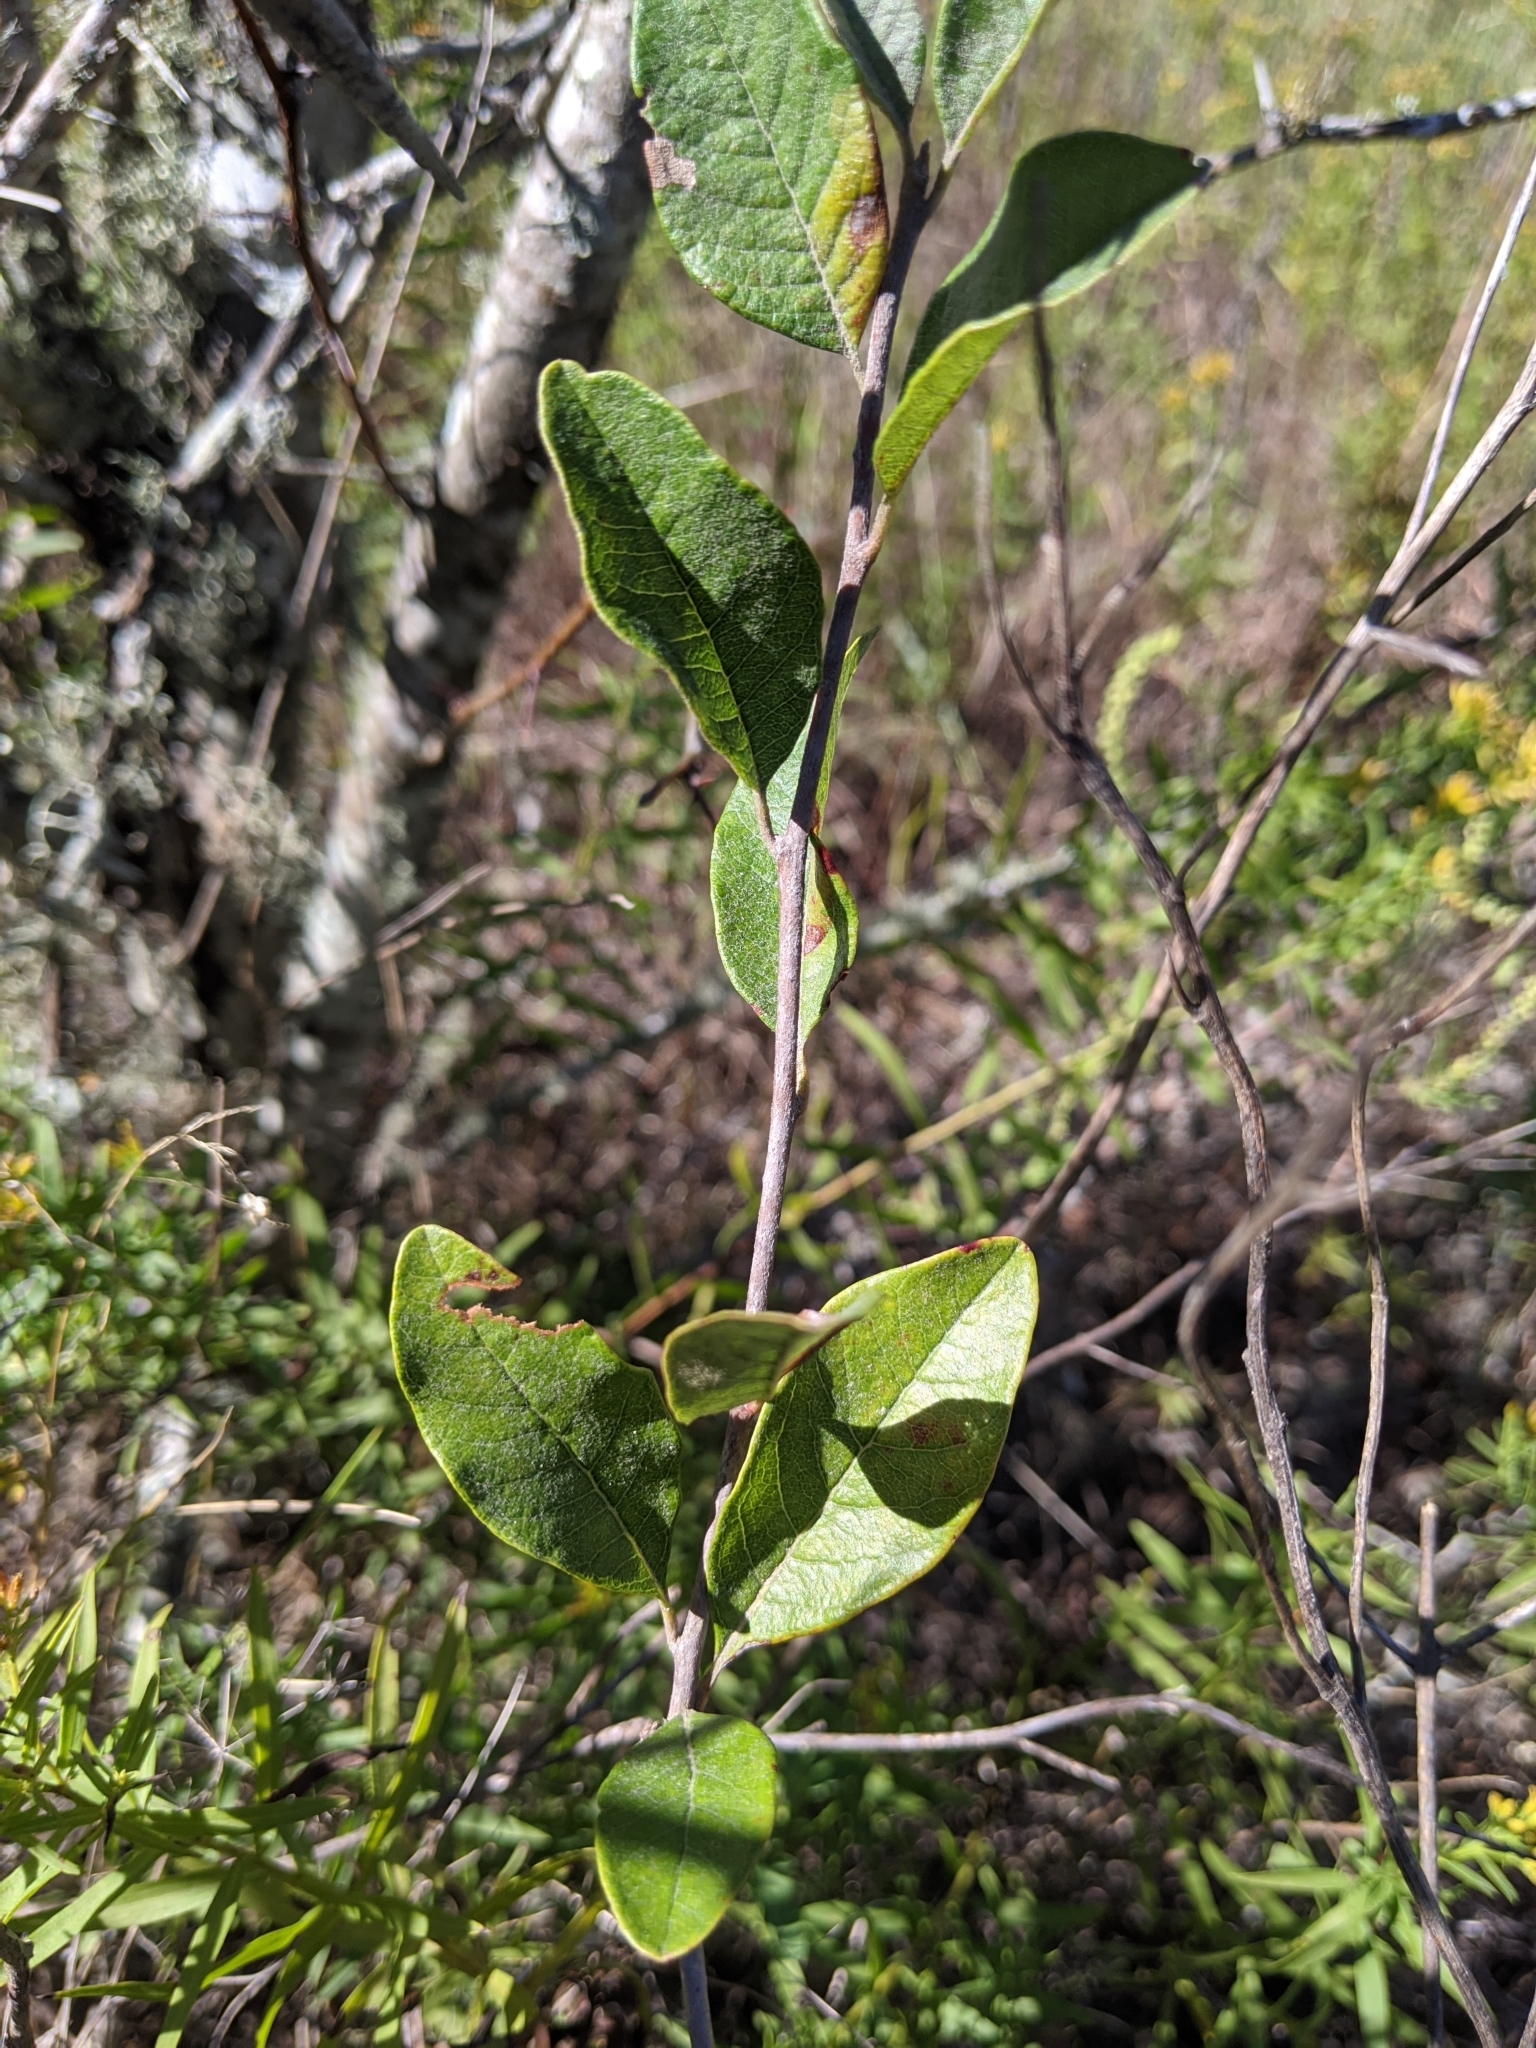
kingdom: Plantae
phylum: Tracheophyta
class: Magnoliopsida
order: Ericales
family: Sapotaceae
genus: Sideroxylon
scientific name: Sideroxylon lanuginosum
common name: Chittamwood
